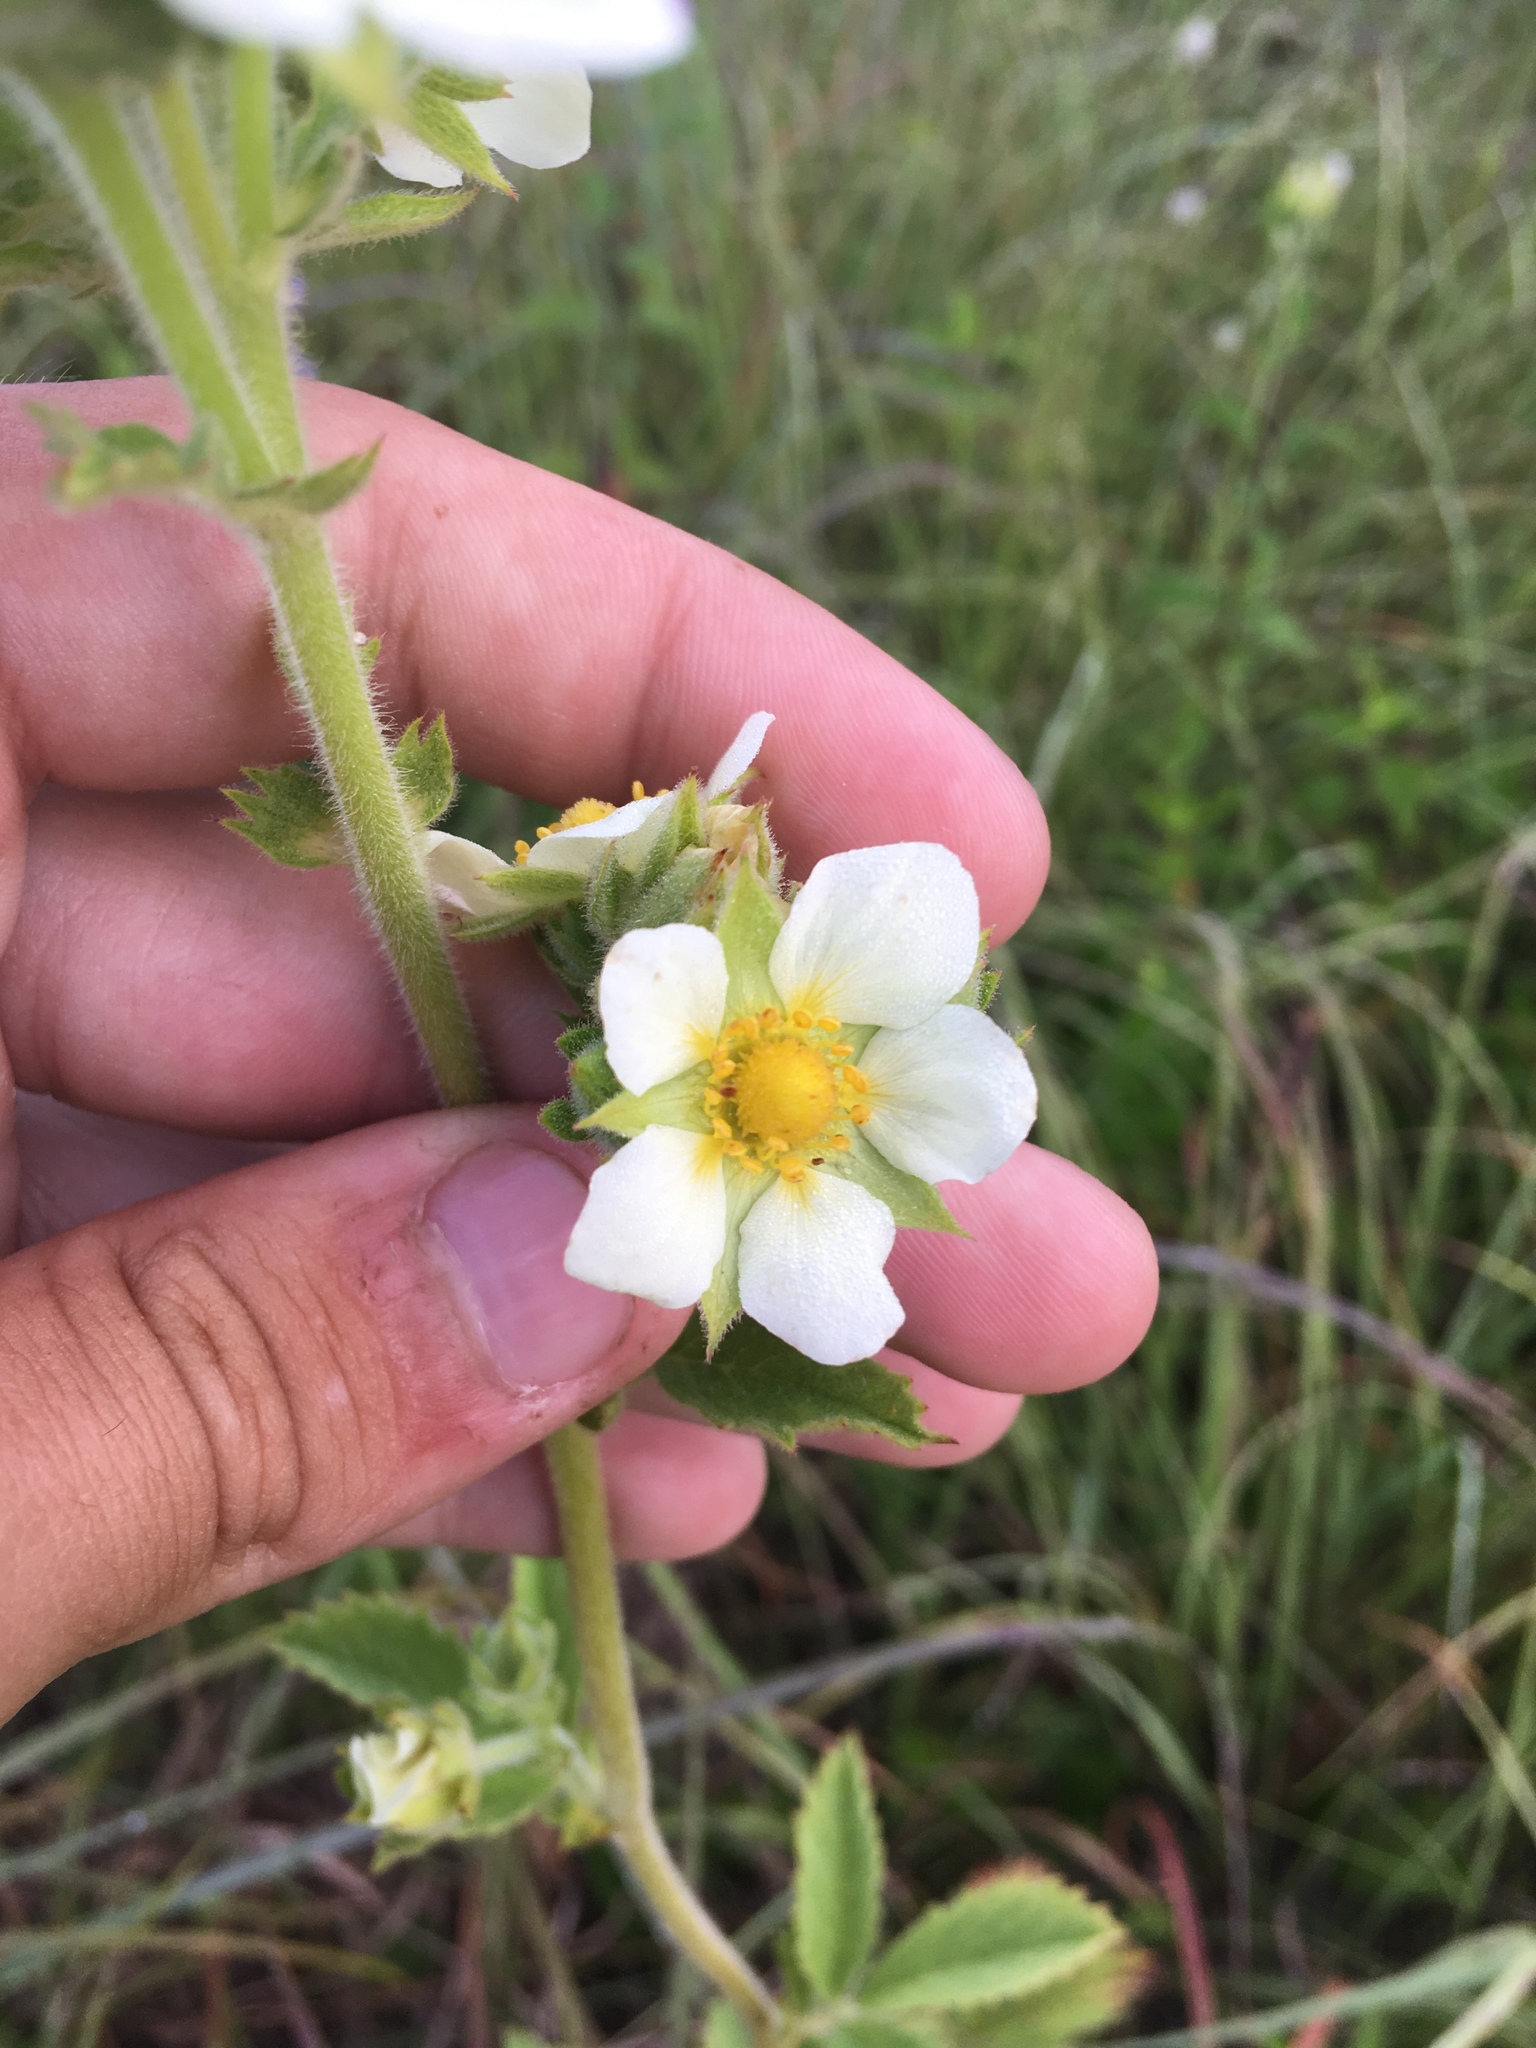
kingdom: Plantae
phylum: Tracheophyta
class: Magnoliopsida
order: Rosales
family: Rosaceae
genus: Drymocallis
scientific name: Drymocallis arguta
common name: Tall cinquefoil
